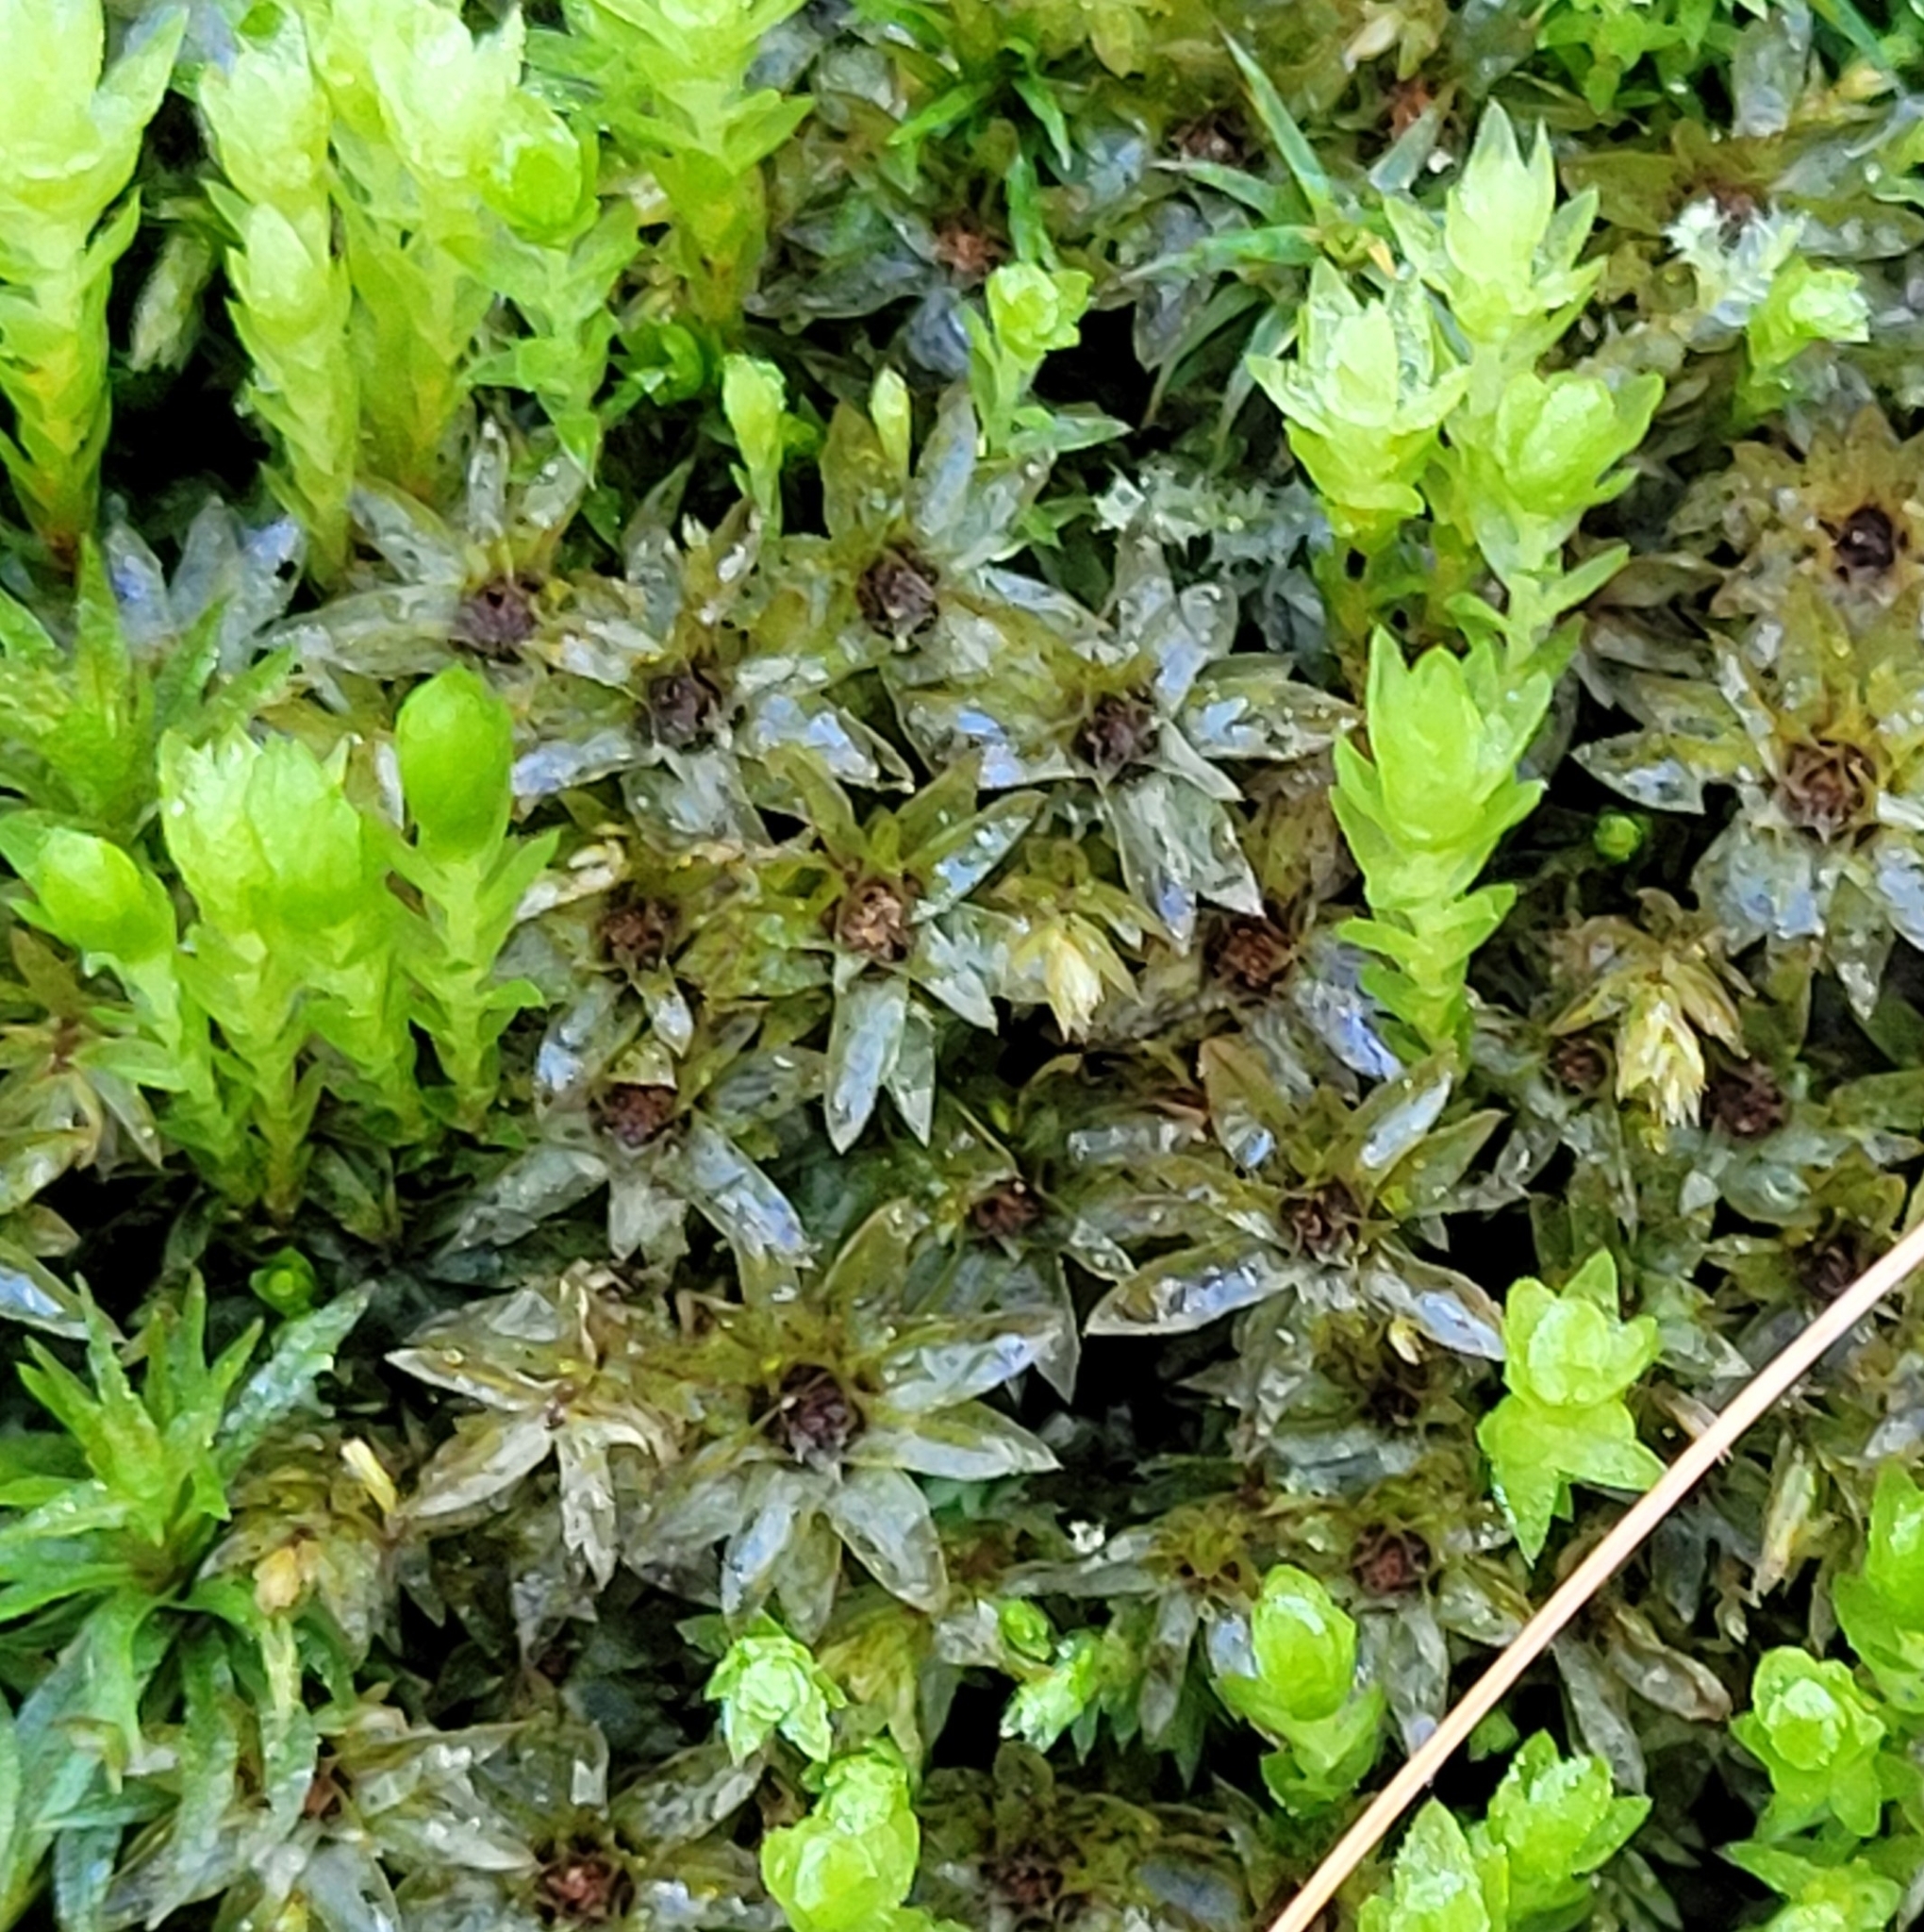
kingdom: Plantae
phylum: Bryophyta
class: Bryopsida
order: Bryales
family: Mniaceae
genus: Mnium
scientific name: Mnium hornum
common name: Swan's-neck leafy moss
